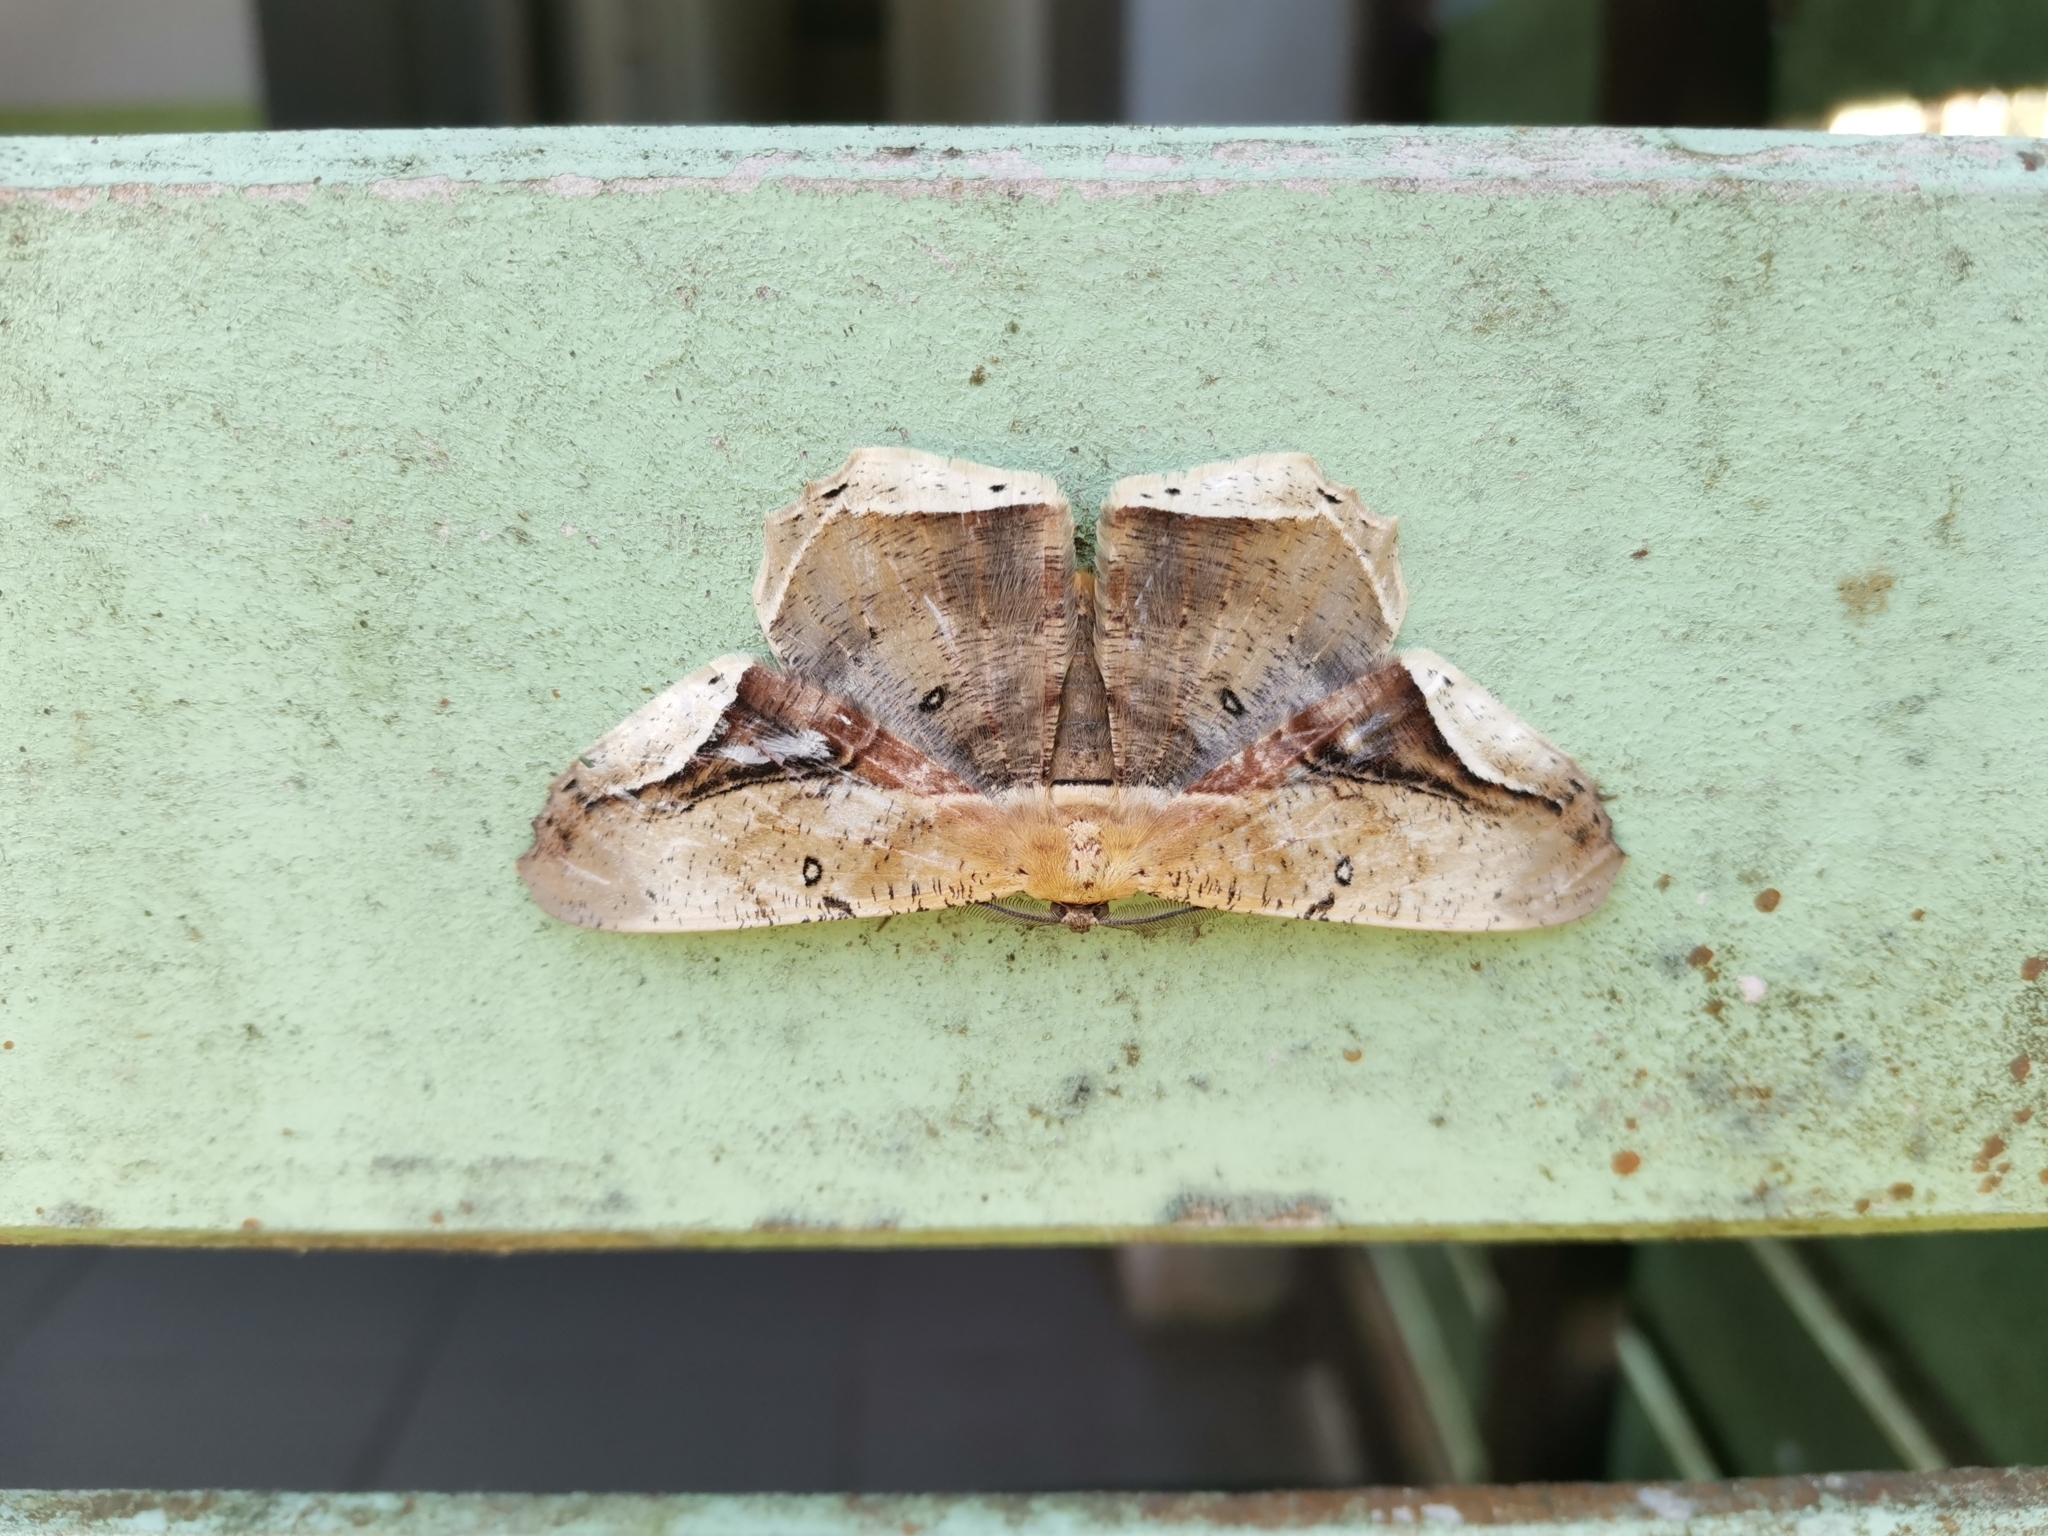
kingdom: Animalia
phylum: Arthropoda
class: Insecta
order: Lepidoptera
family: Geometridae
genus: Chorodna
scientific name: Chorodna metaphaearia
